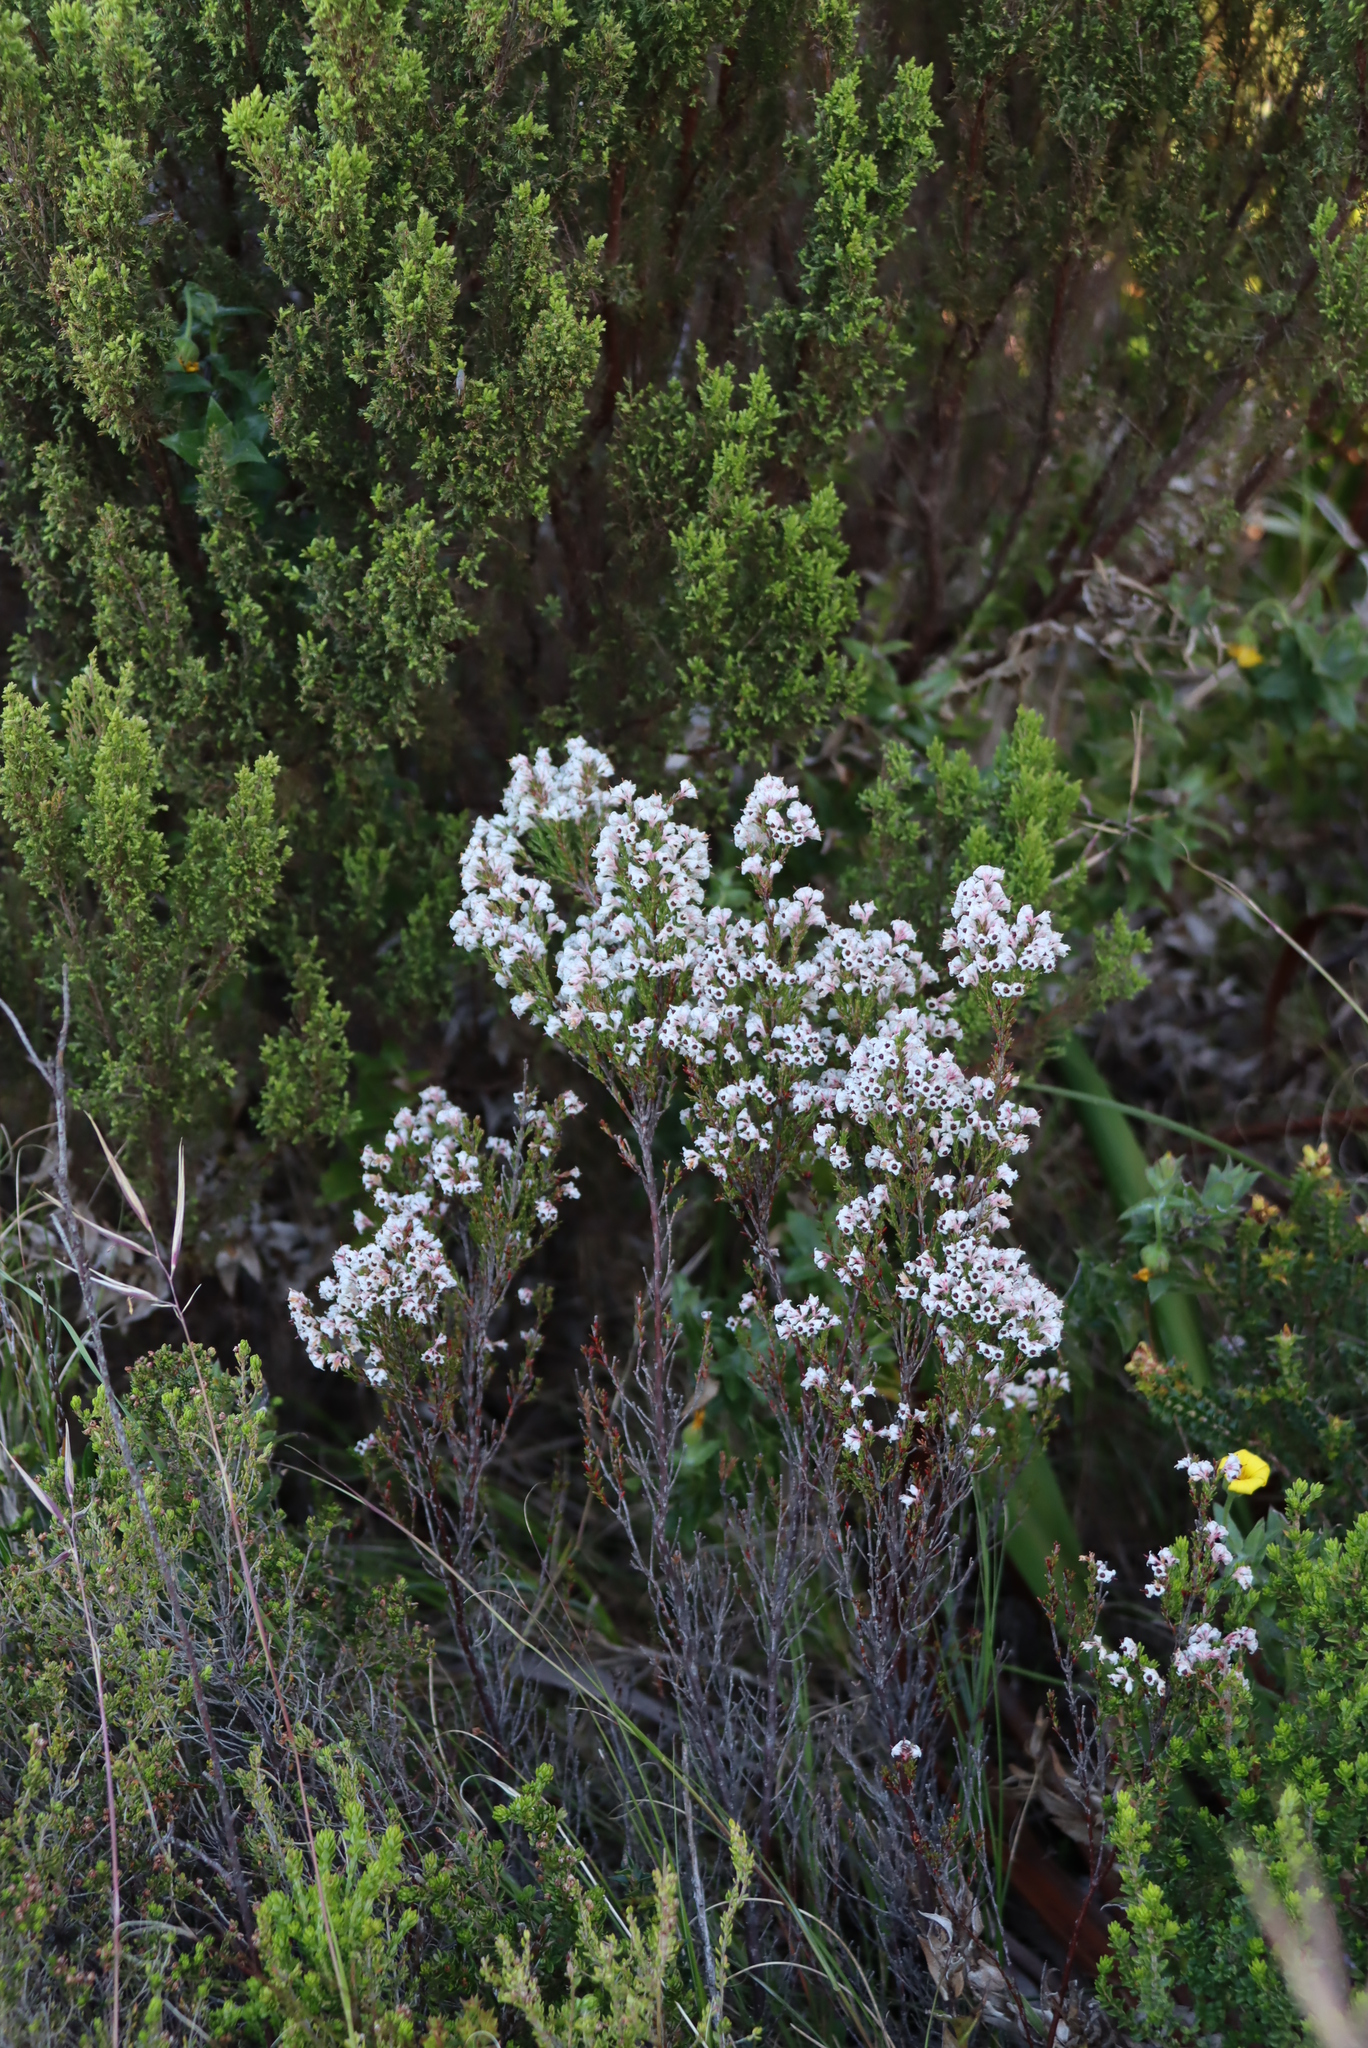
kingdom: Plantae
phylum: Tracheophyta
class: Magnoliopsida
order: Ericales
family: Ericaceae
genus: Erica
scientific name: Erica calycina
